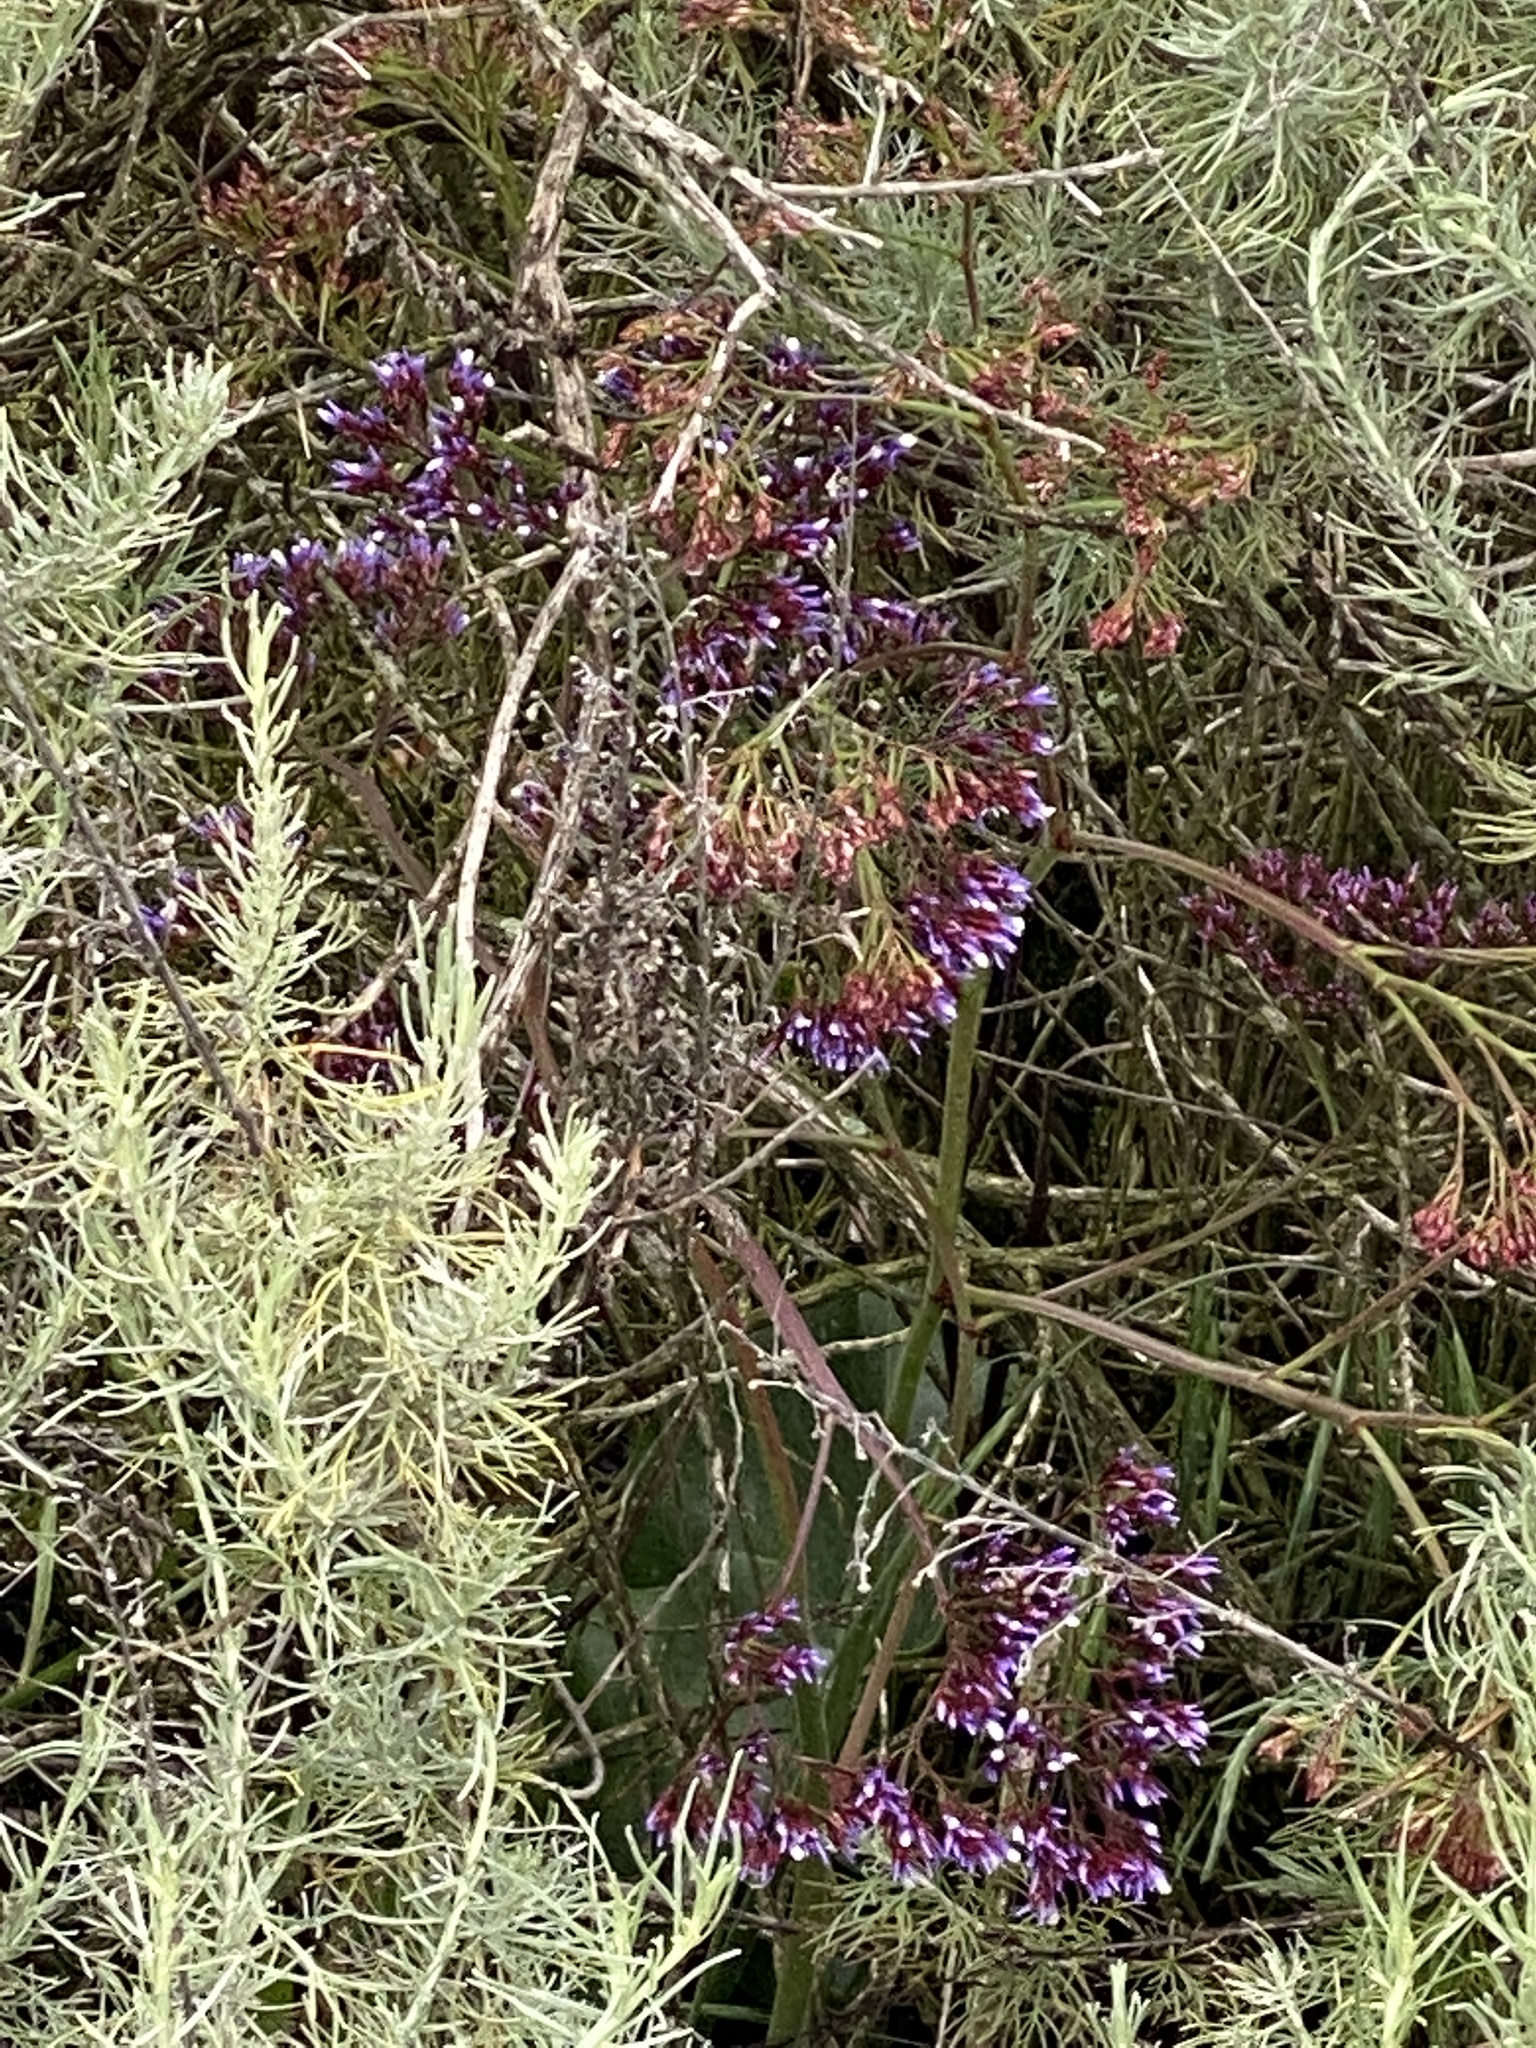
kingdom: Plantae
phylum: Tracheophyta
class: Magnoliopsida
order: Caryophyllales
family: Plumbaginaceae
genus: Limonium
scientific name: Limonium perezii
